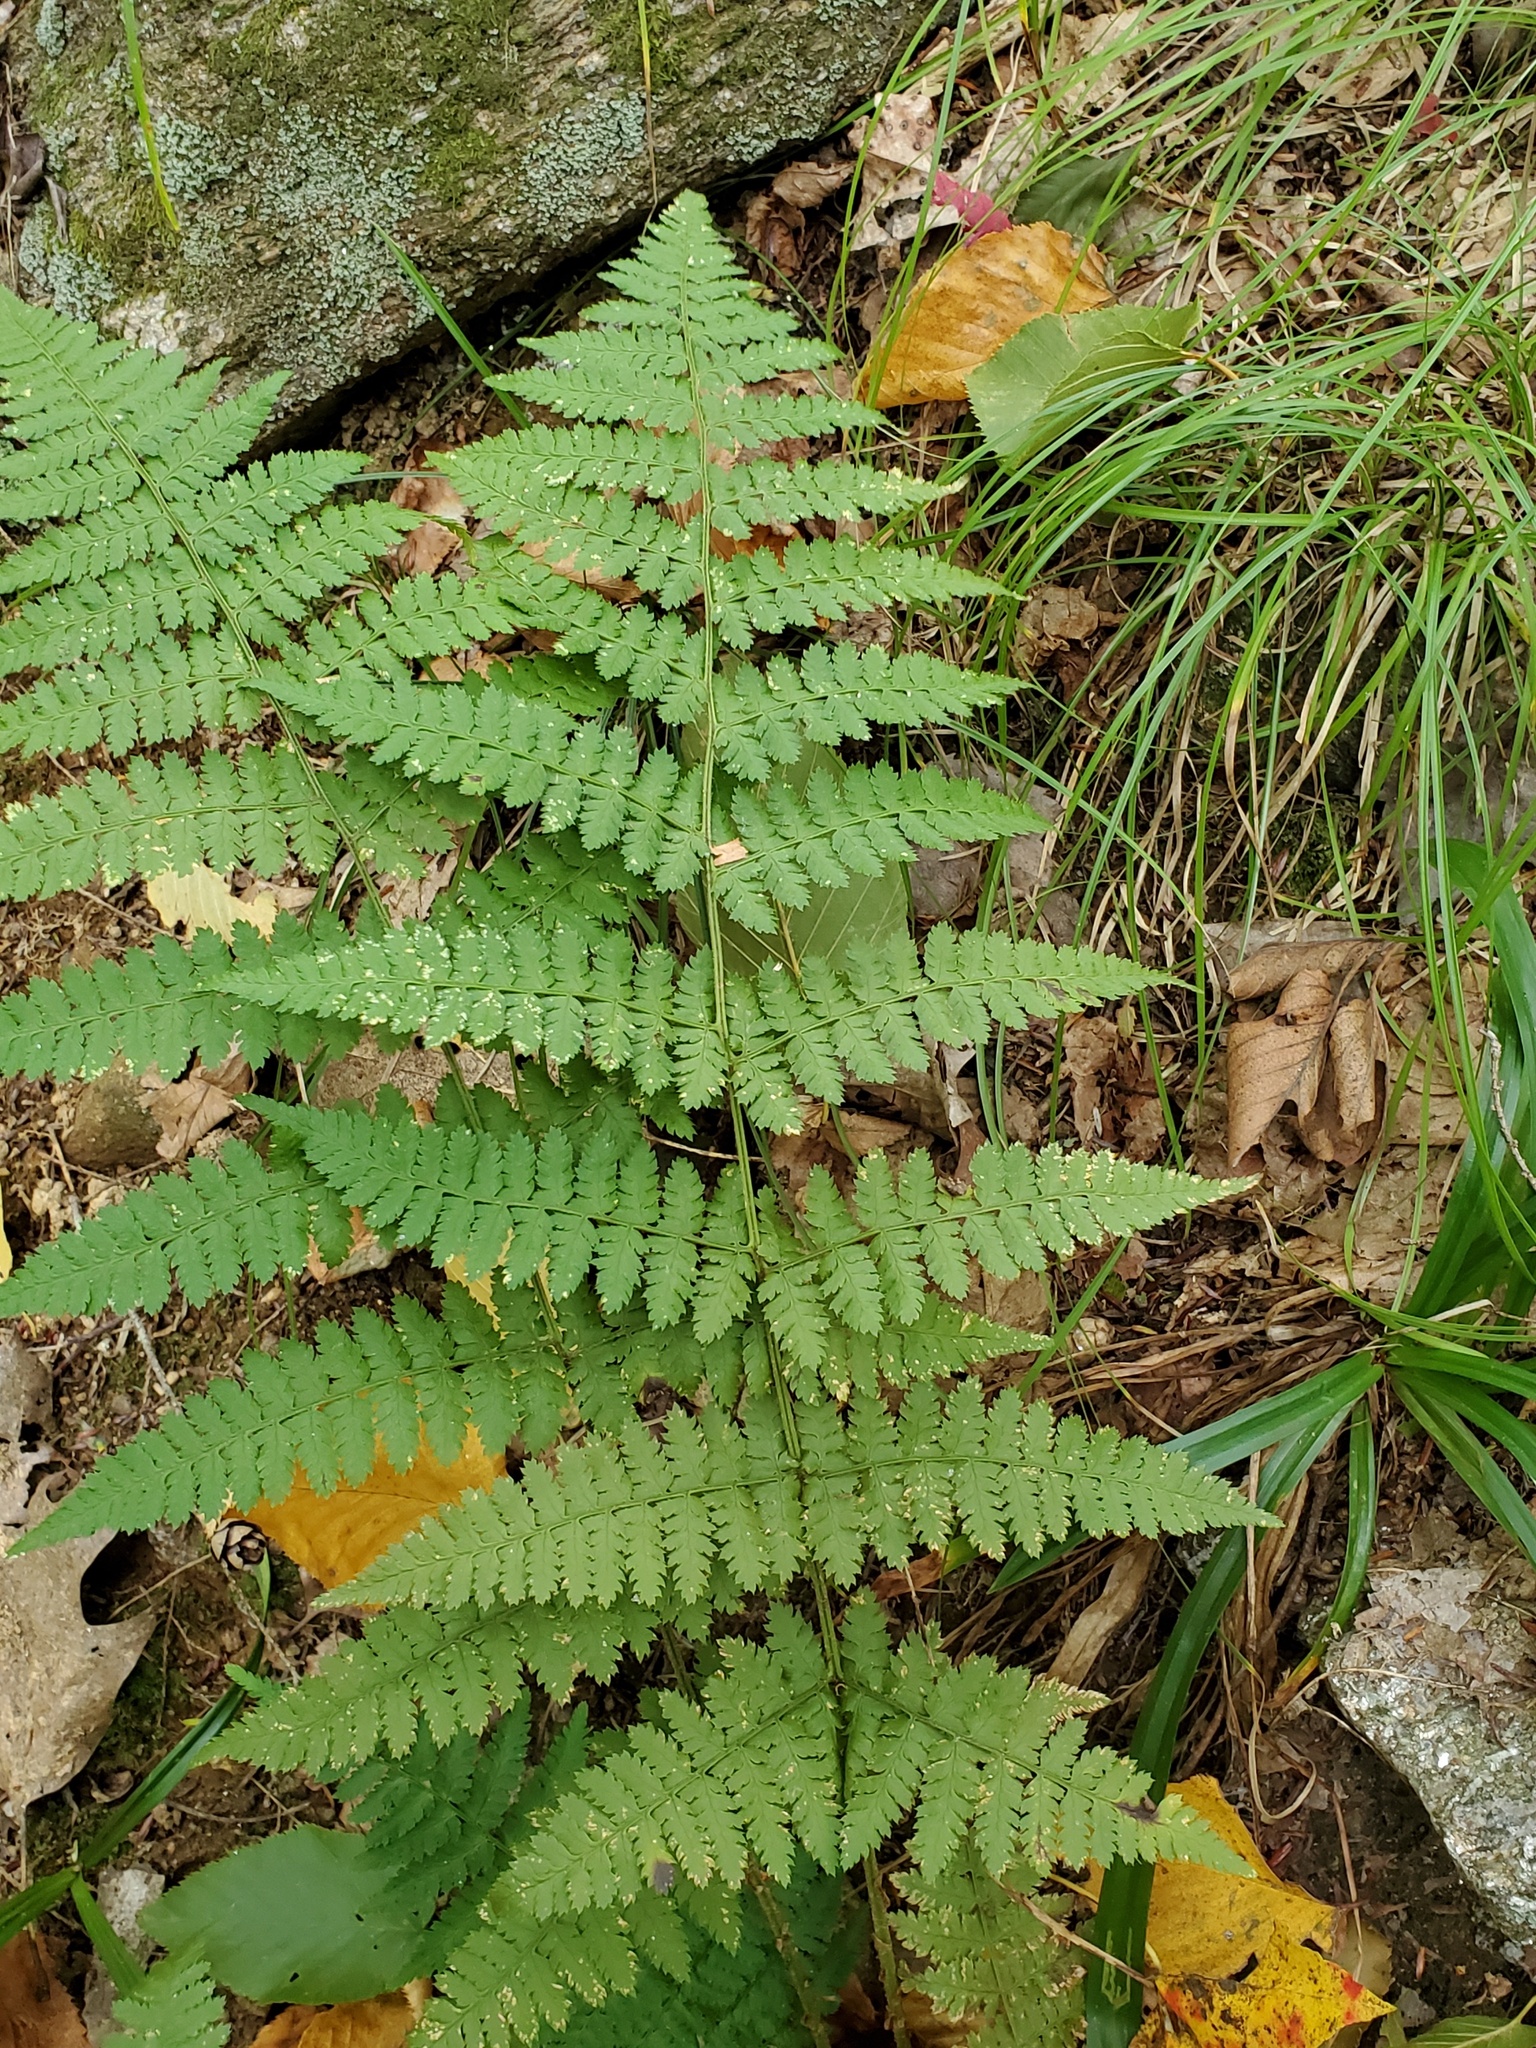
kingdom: Plantae
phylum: Tracheophyta
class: Polypodiopsida
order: Polypodiales
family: Dryopteridaceae
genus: Dryopteris
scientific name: Dryopteris intermedia
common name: Evergreen wood fern
